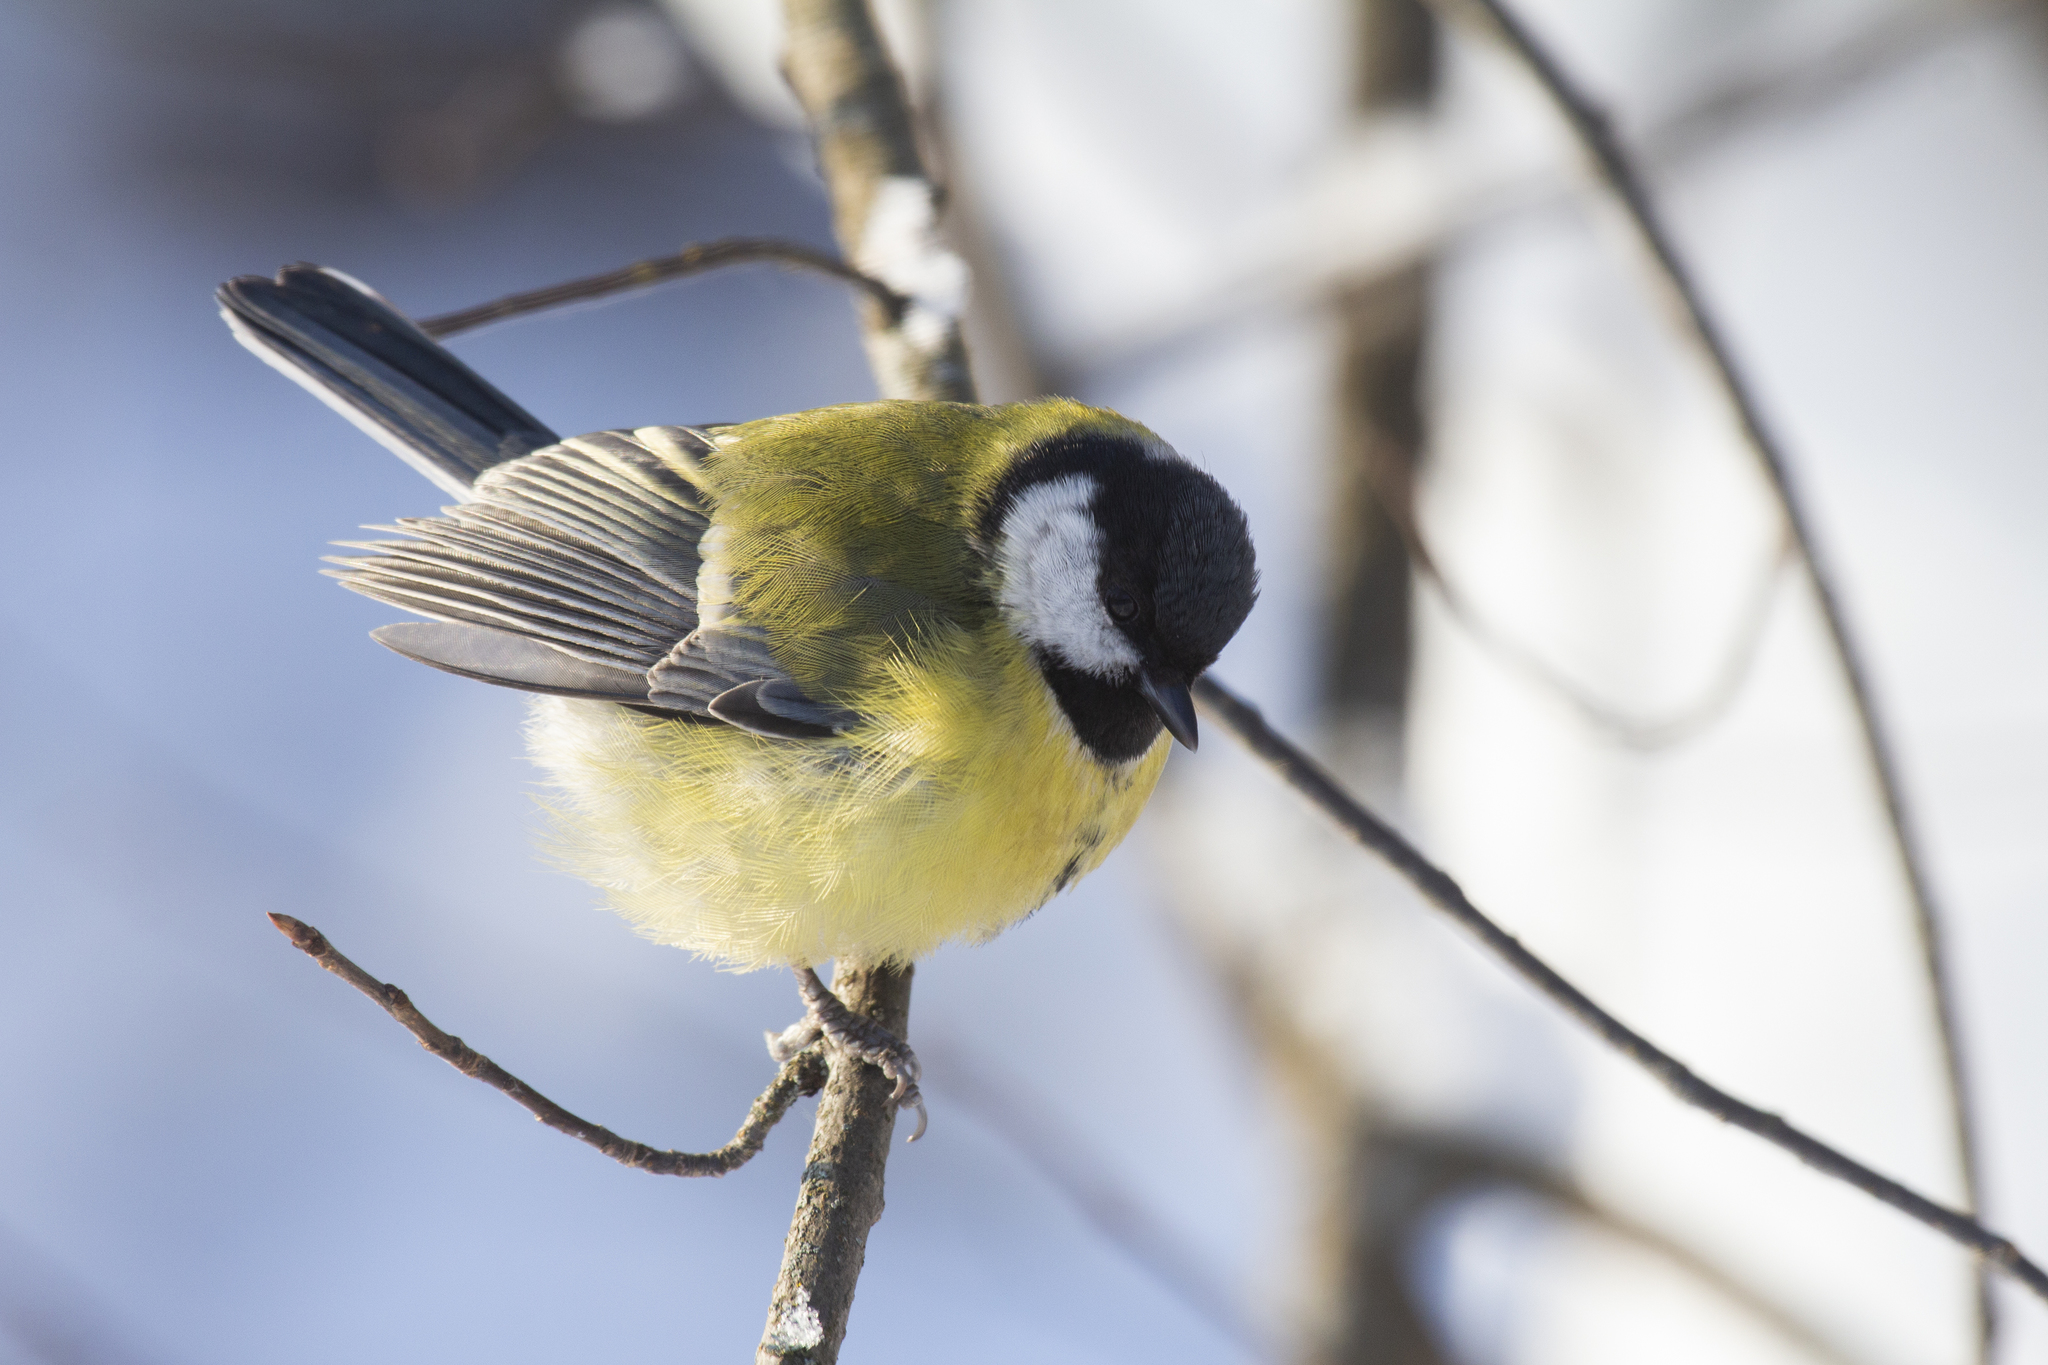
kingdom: Animalia
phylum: Chordata
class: Aves
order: Passeriformes
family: Paridae
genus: Parus
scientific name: Parus major
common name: Great tit
